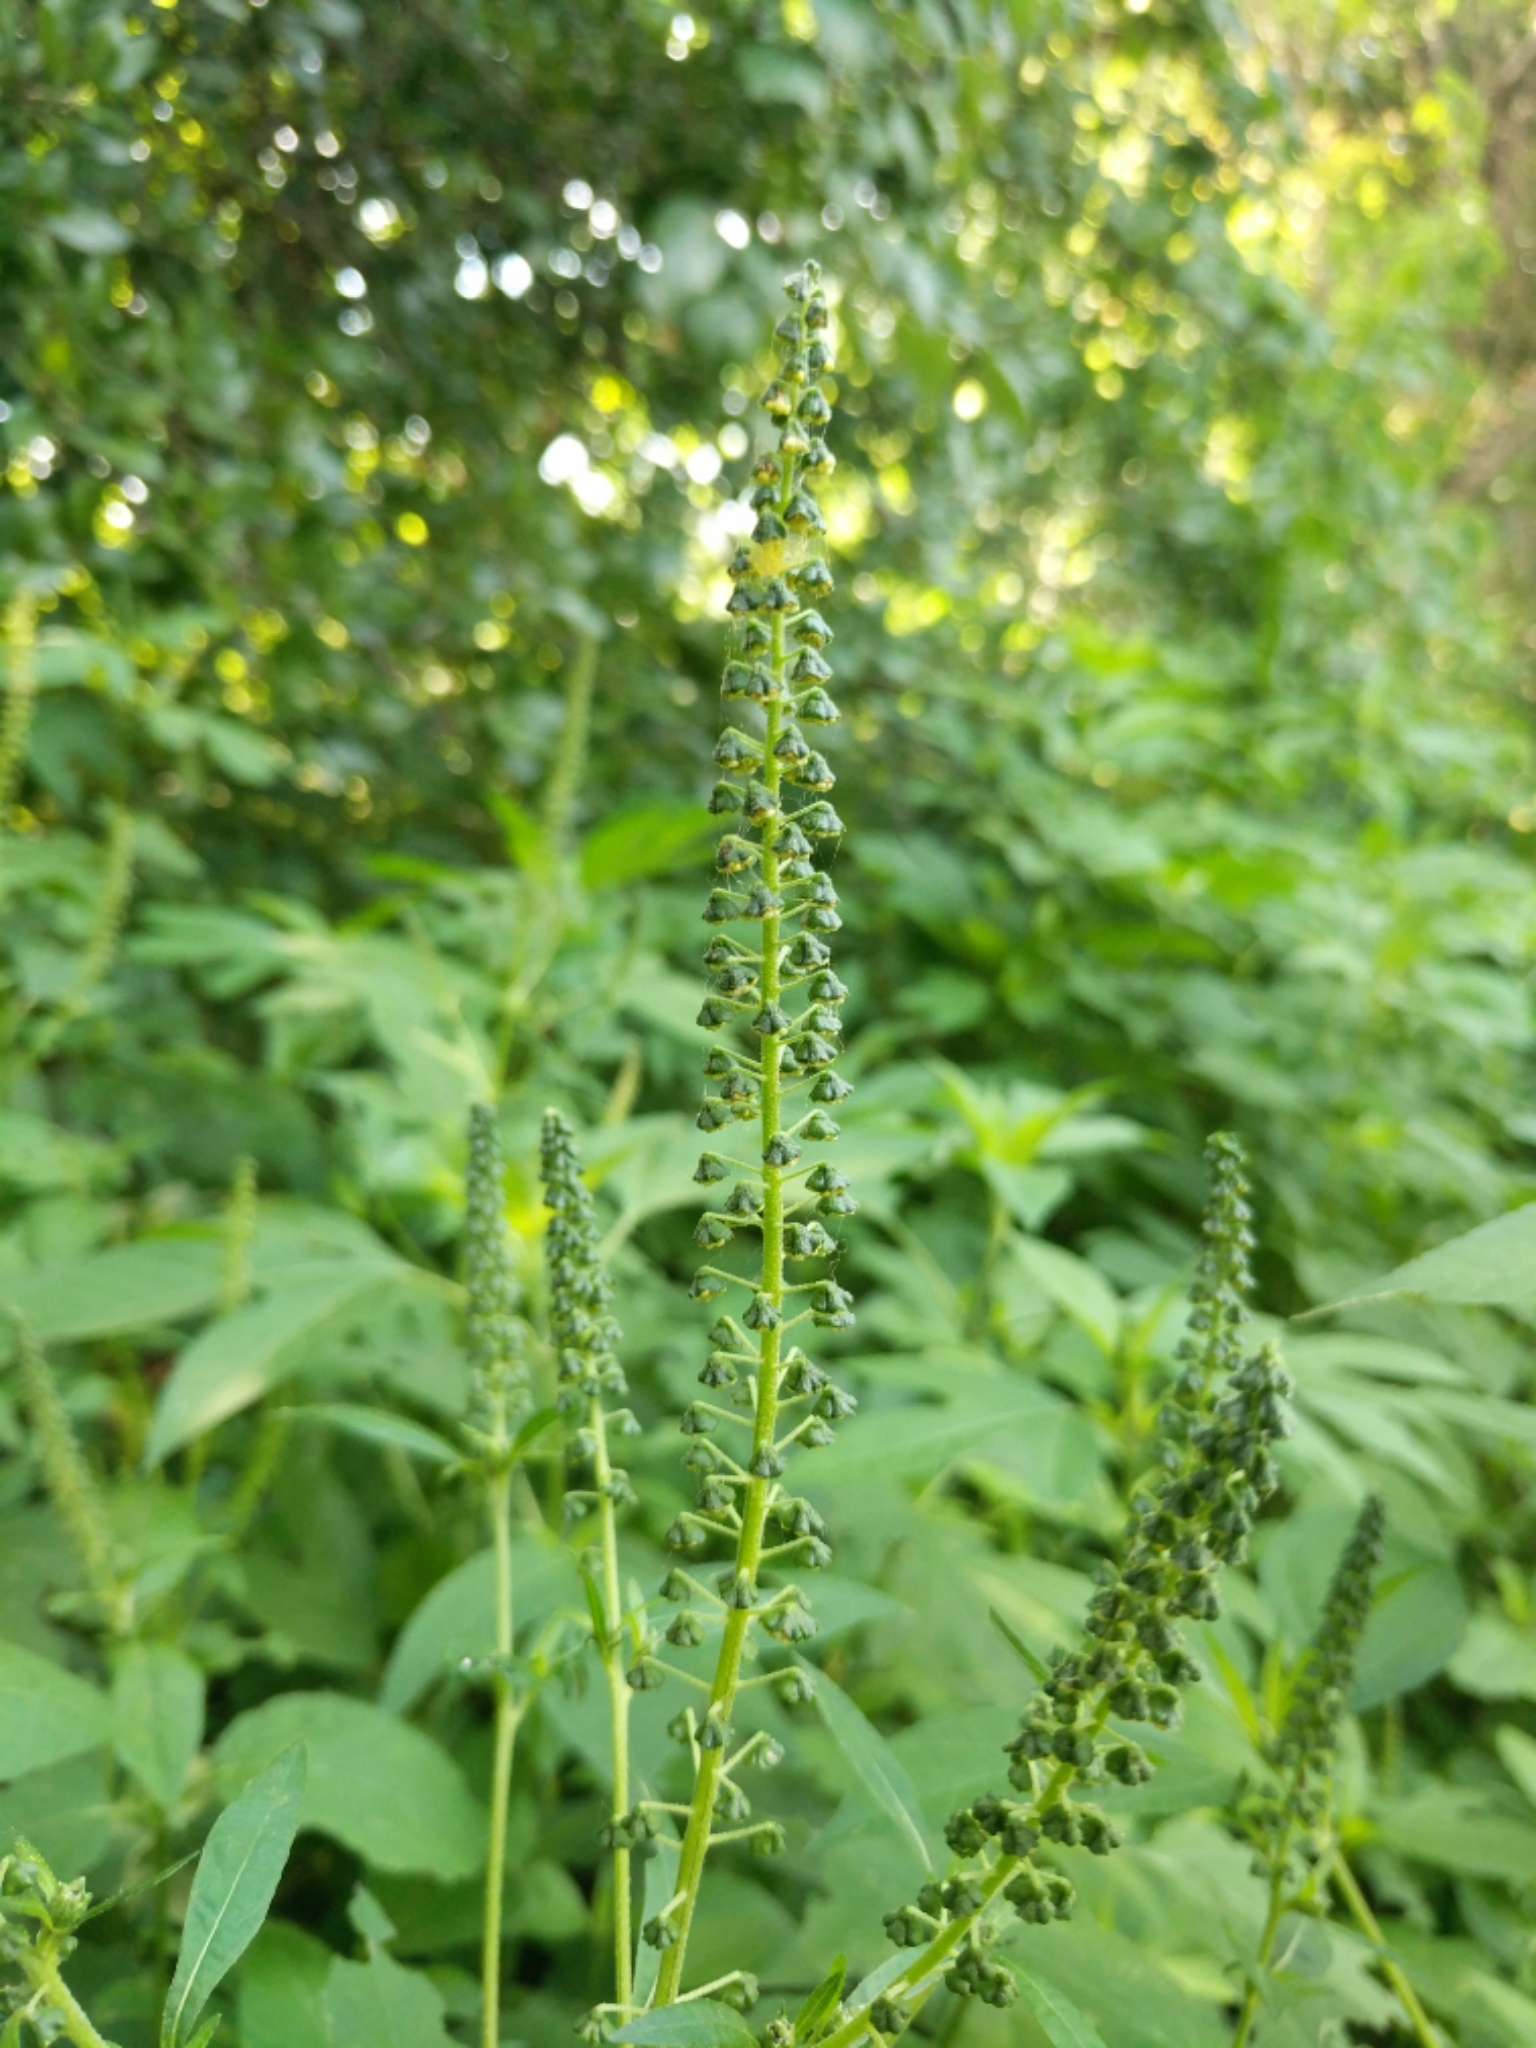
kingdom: Plantae
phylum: Tracheophyta
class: Magnoliopsida
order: Asterales
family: Asteraceae
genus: Ambrosia
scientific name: Ambrosia trifida
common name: Giant ragweed
